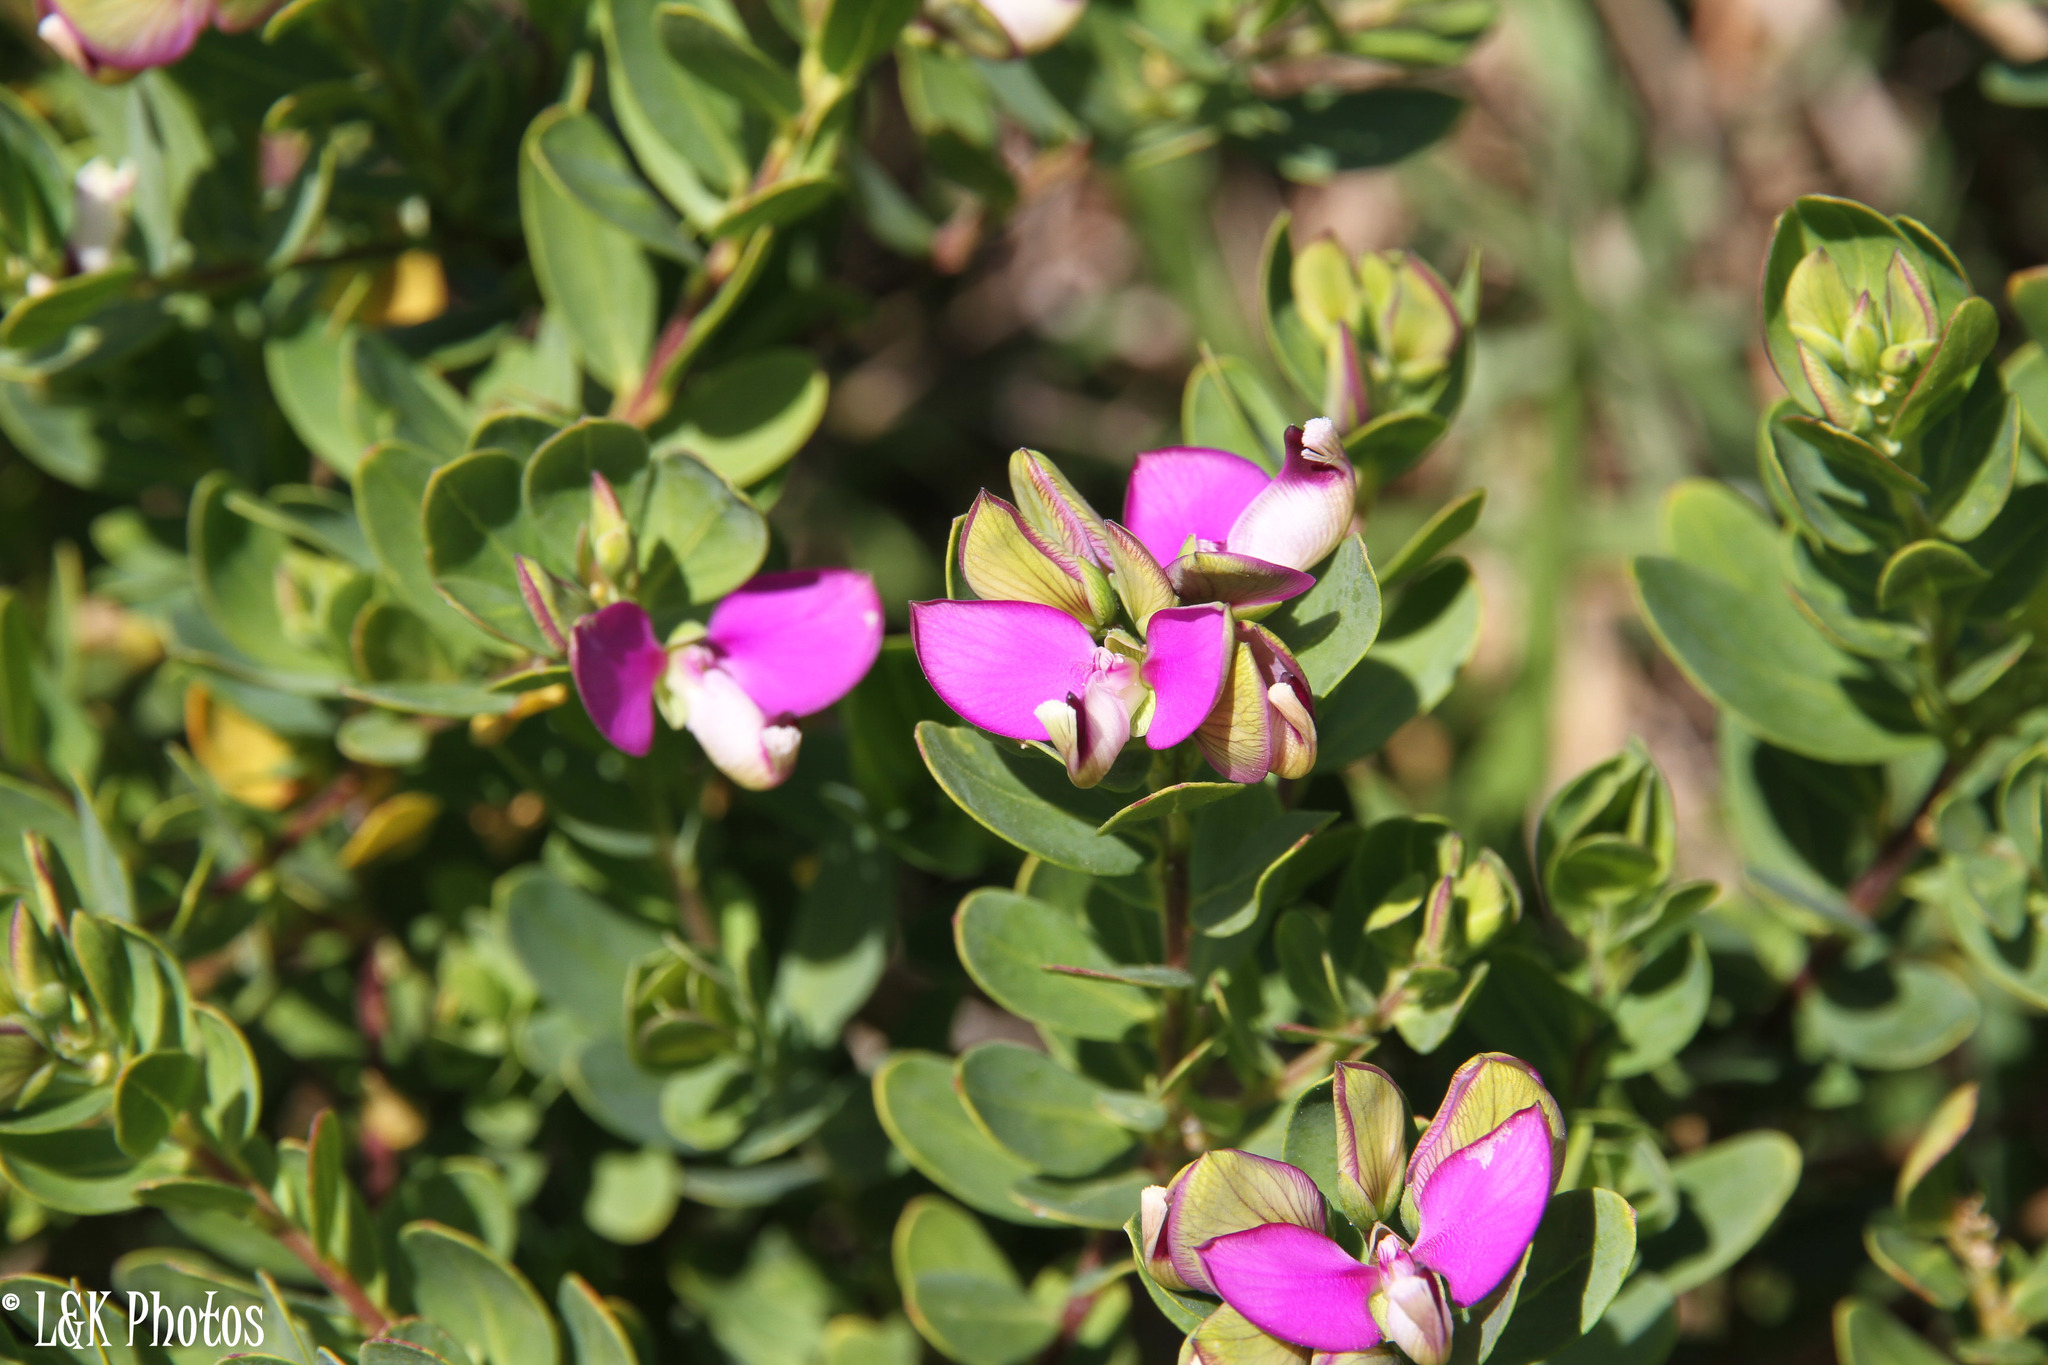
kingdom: Plantae
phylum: Tracheophyta
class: Magnoliopsida
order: Fabales
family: Polygalaceae
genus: Polygala
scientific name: Polygala myrtifolia
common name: Myrtle-leaf milkwort
